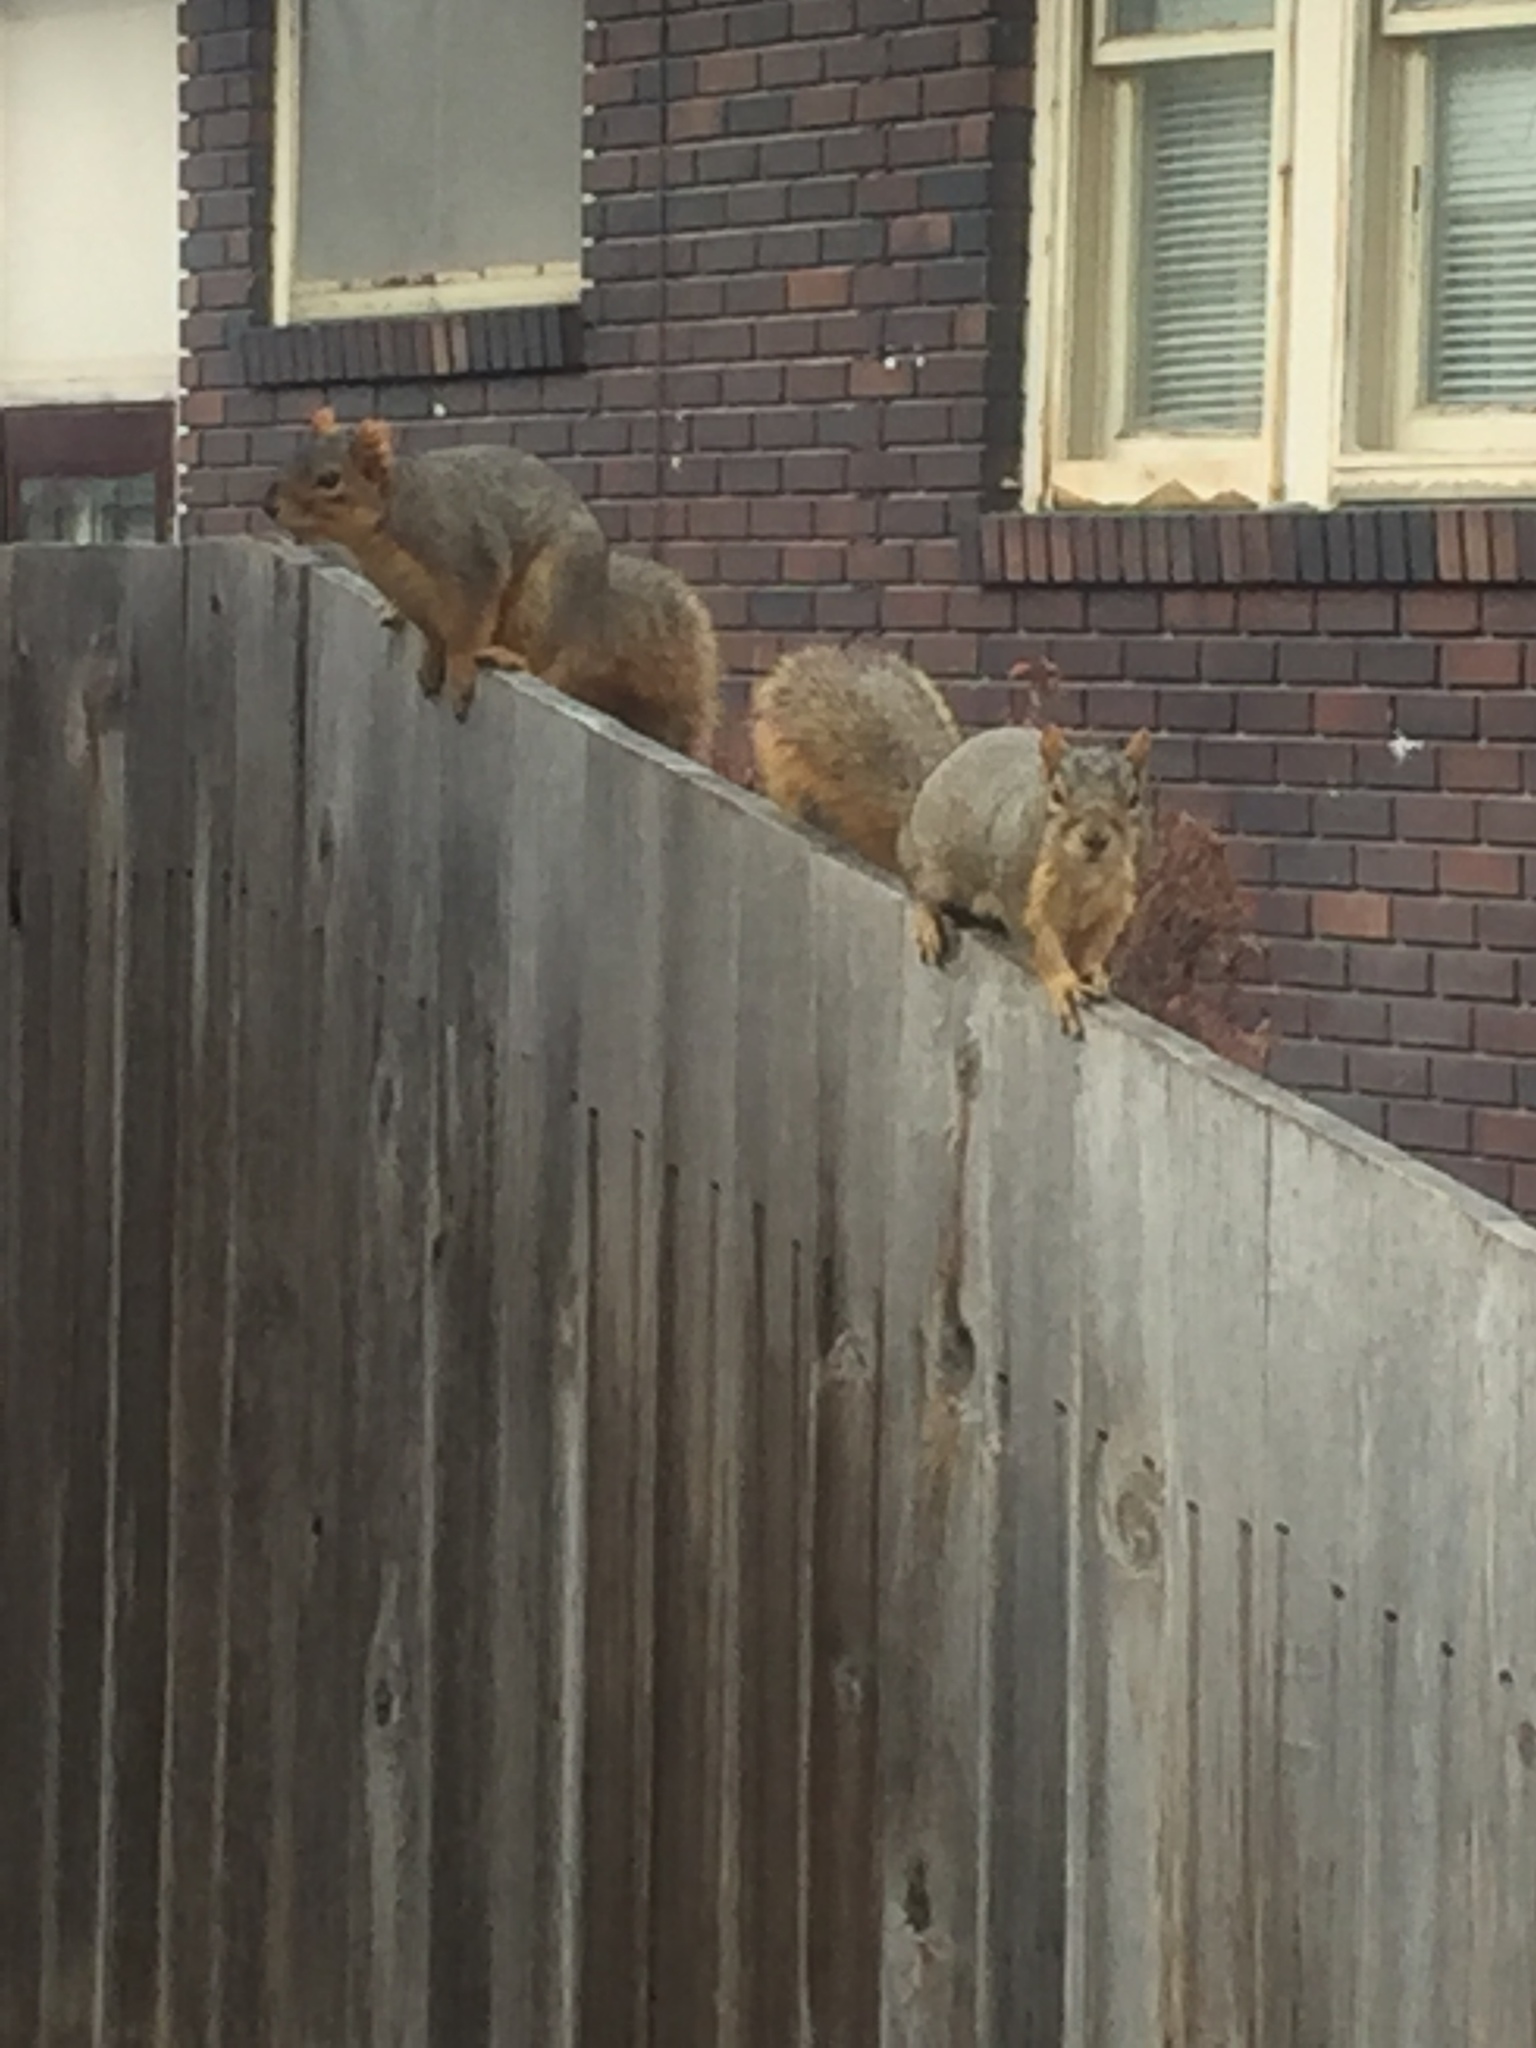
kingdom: Animalia
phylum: Chordata
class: Mammalia
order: Rodentia
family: Sciuridae
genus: Sciurus
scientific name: Sciurus niger
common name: Fox squirrel
